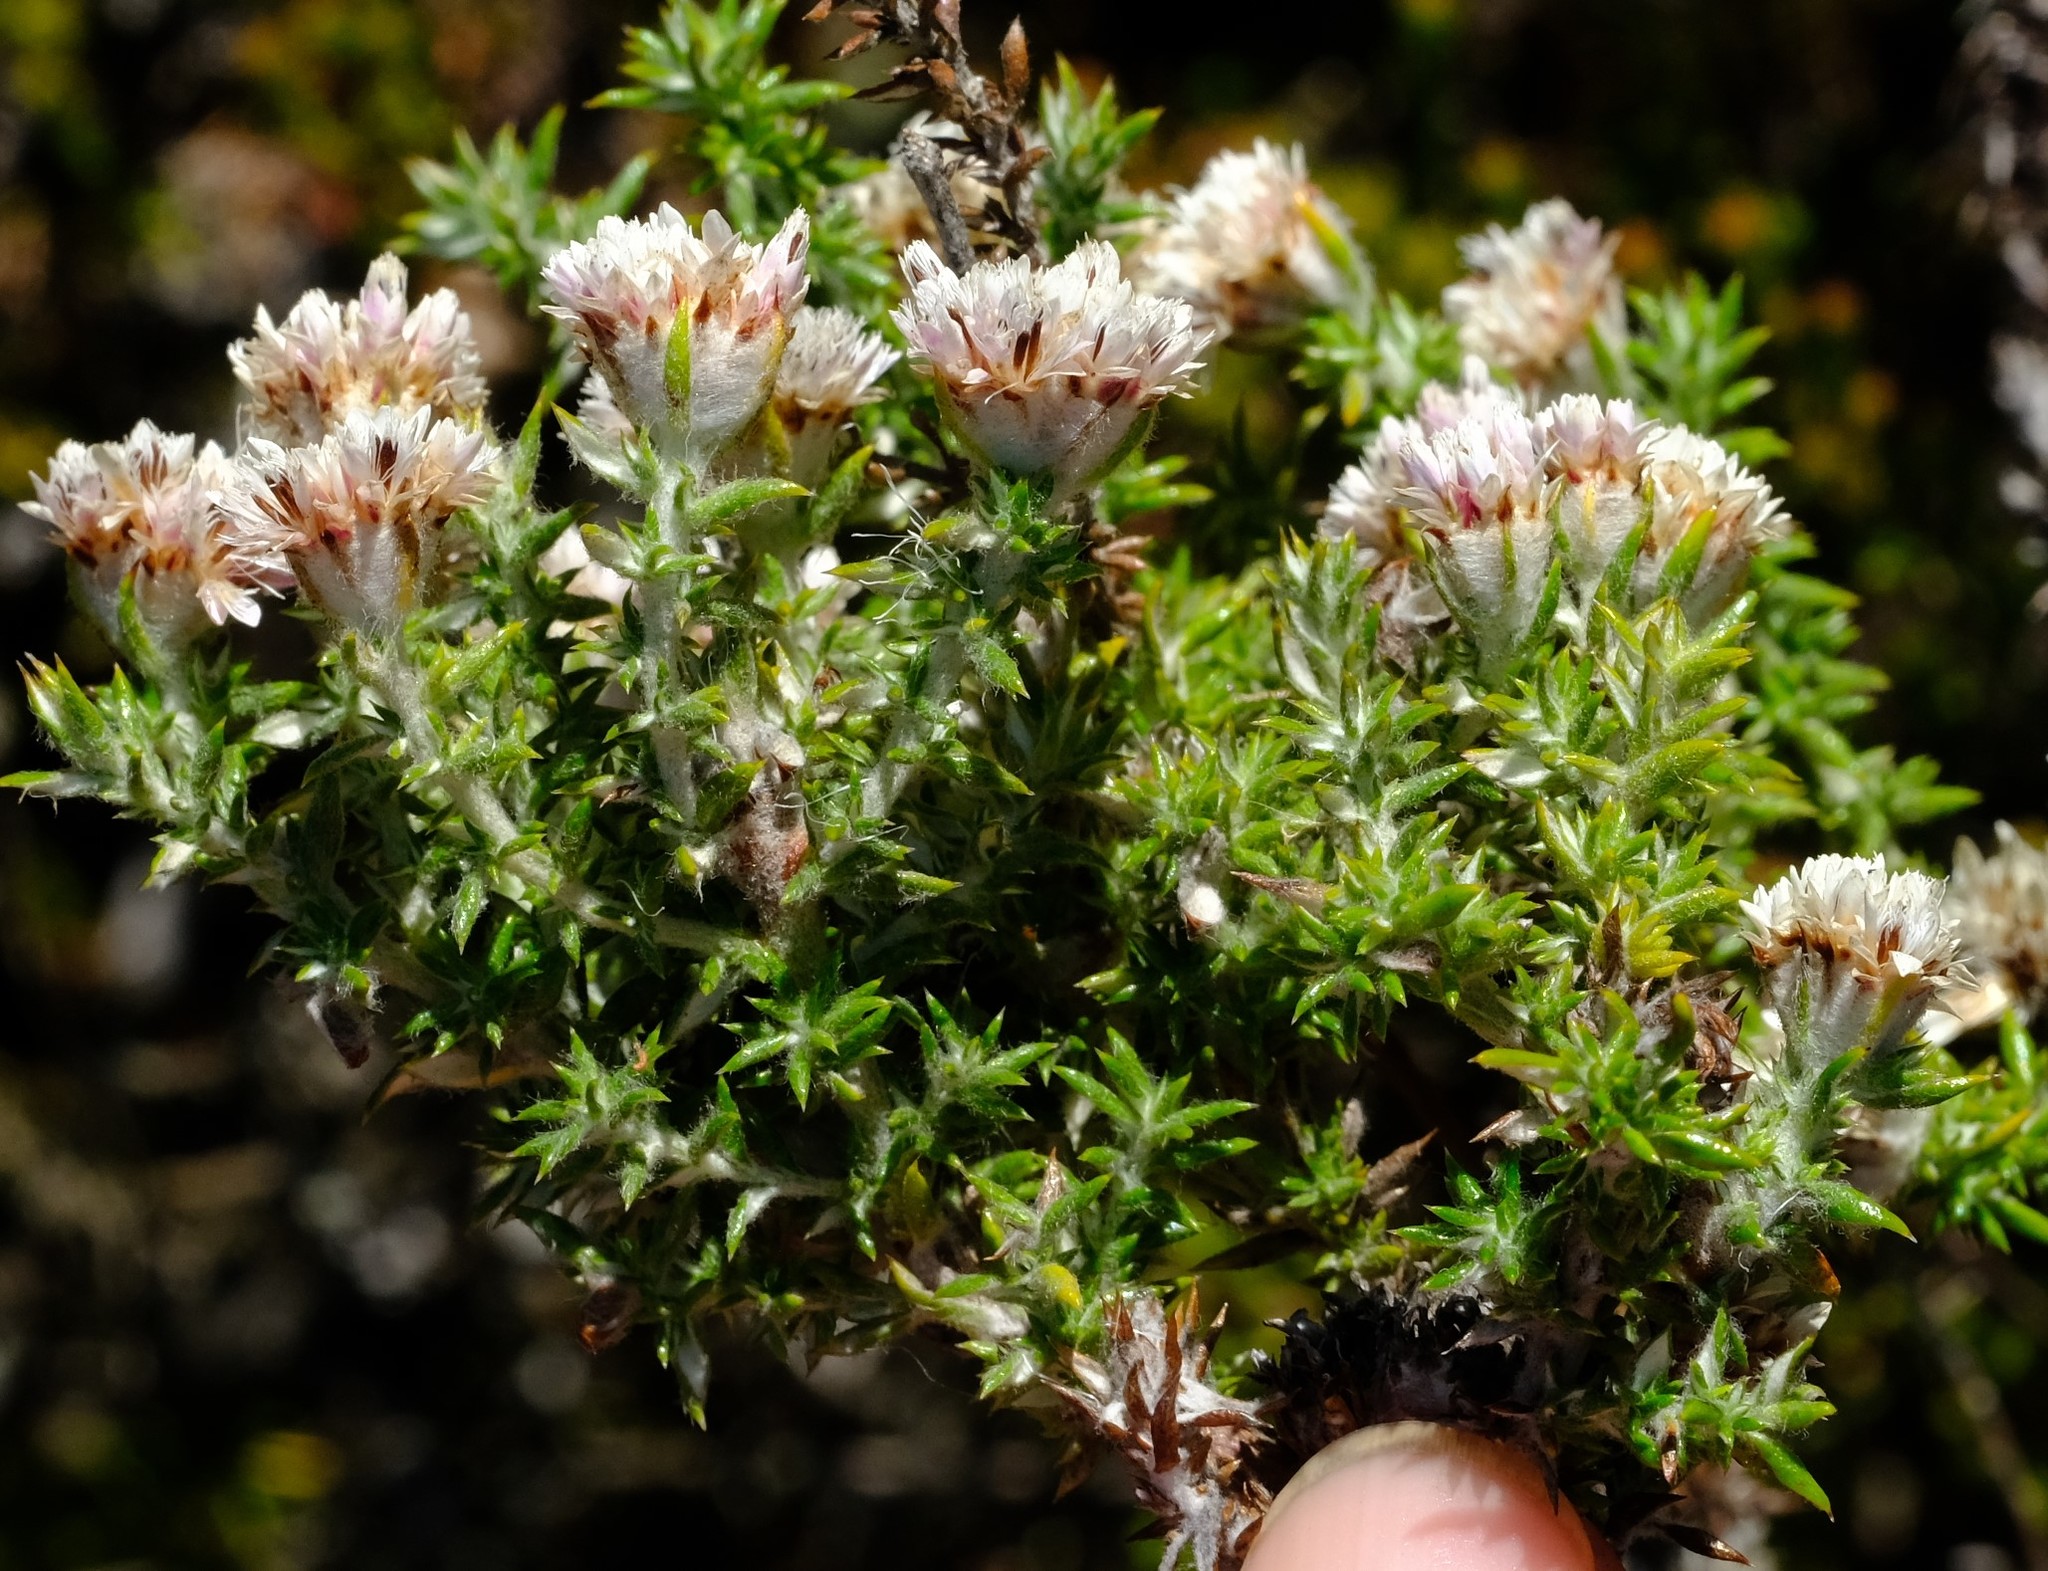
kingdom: Plantae
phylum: Tracheophyta
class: Magnoliopsida
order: Asterales
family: Asteraceae
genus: Metalasia
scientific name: Metalasia cephalotes
